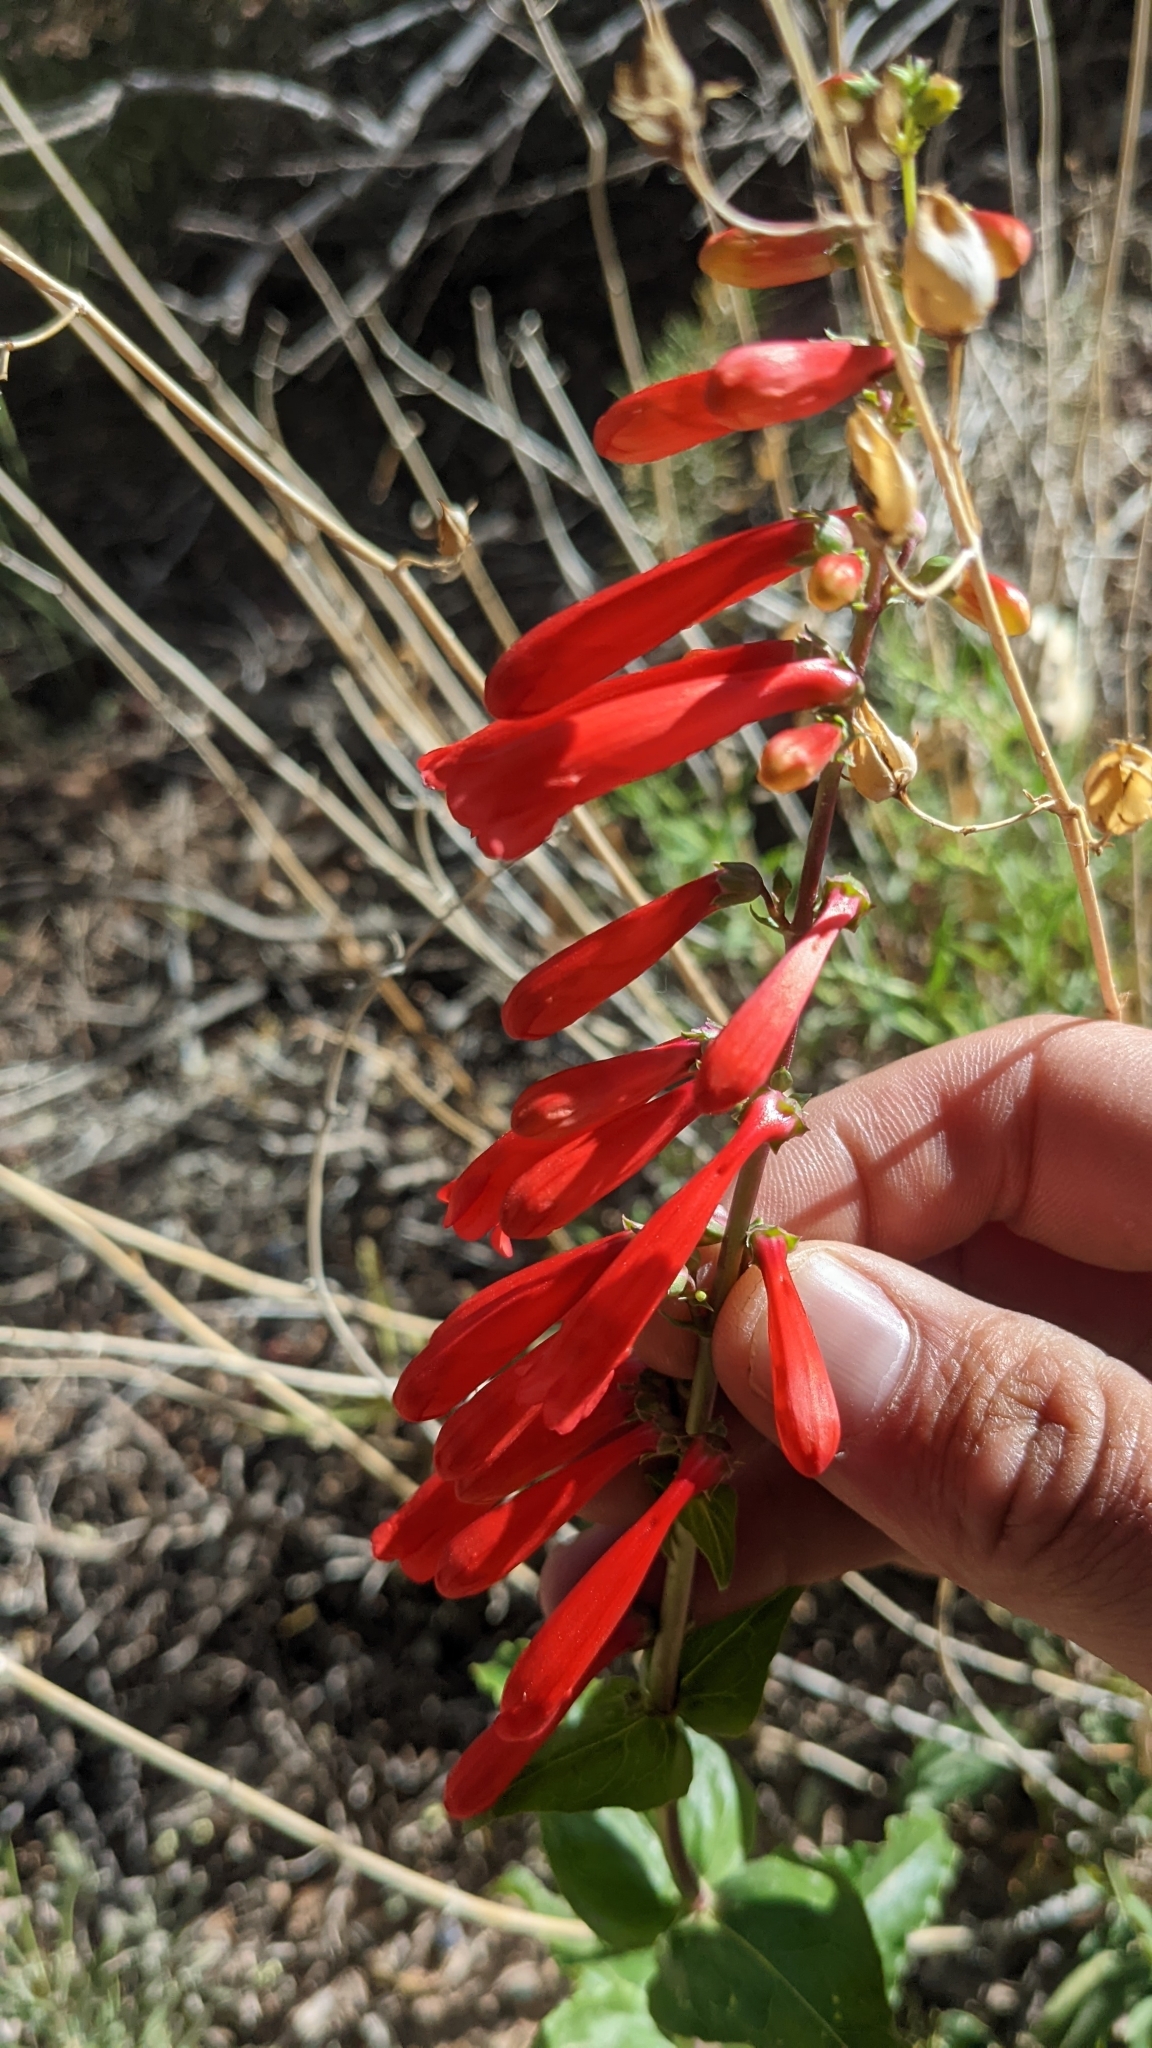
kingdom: Plantae
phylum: Tracheophyta
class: Magnoliopsida
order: Lamiales
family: Plantaginaceae
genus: Penstemon
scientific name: Penstemon eatonii
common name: Eaton's penstemon
